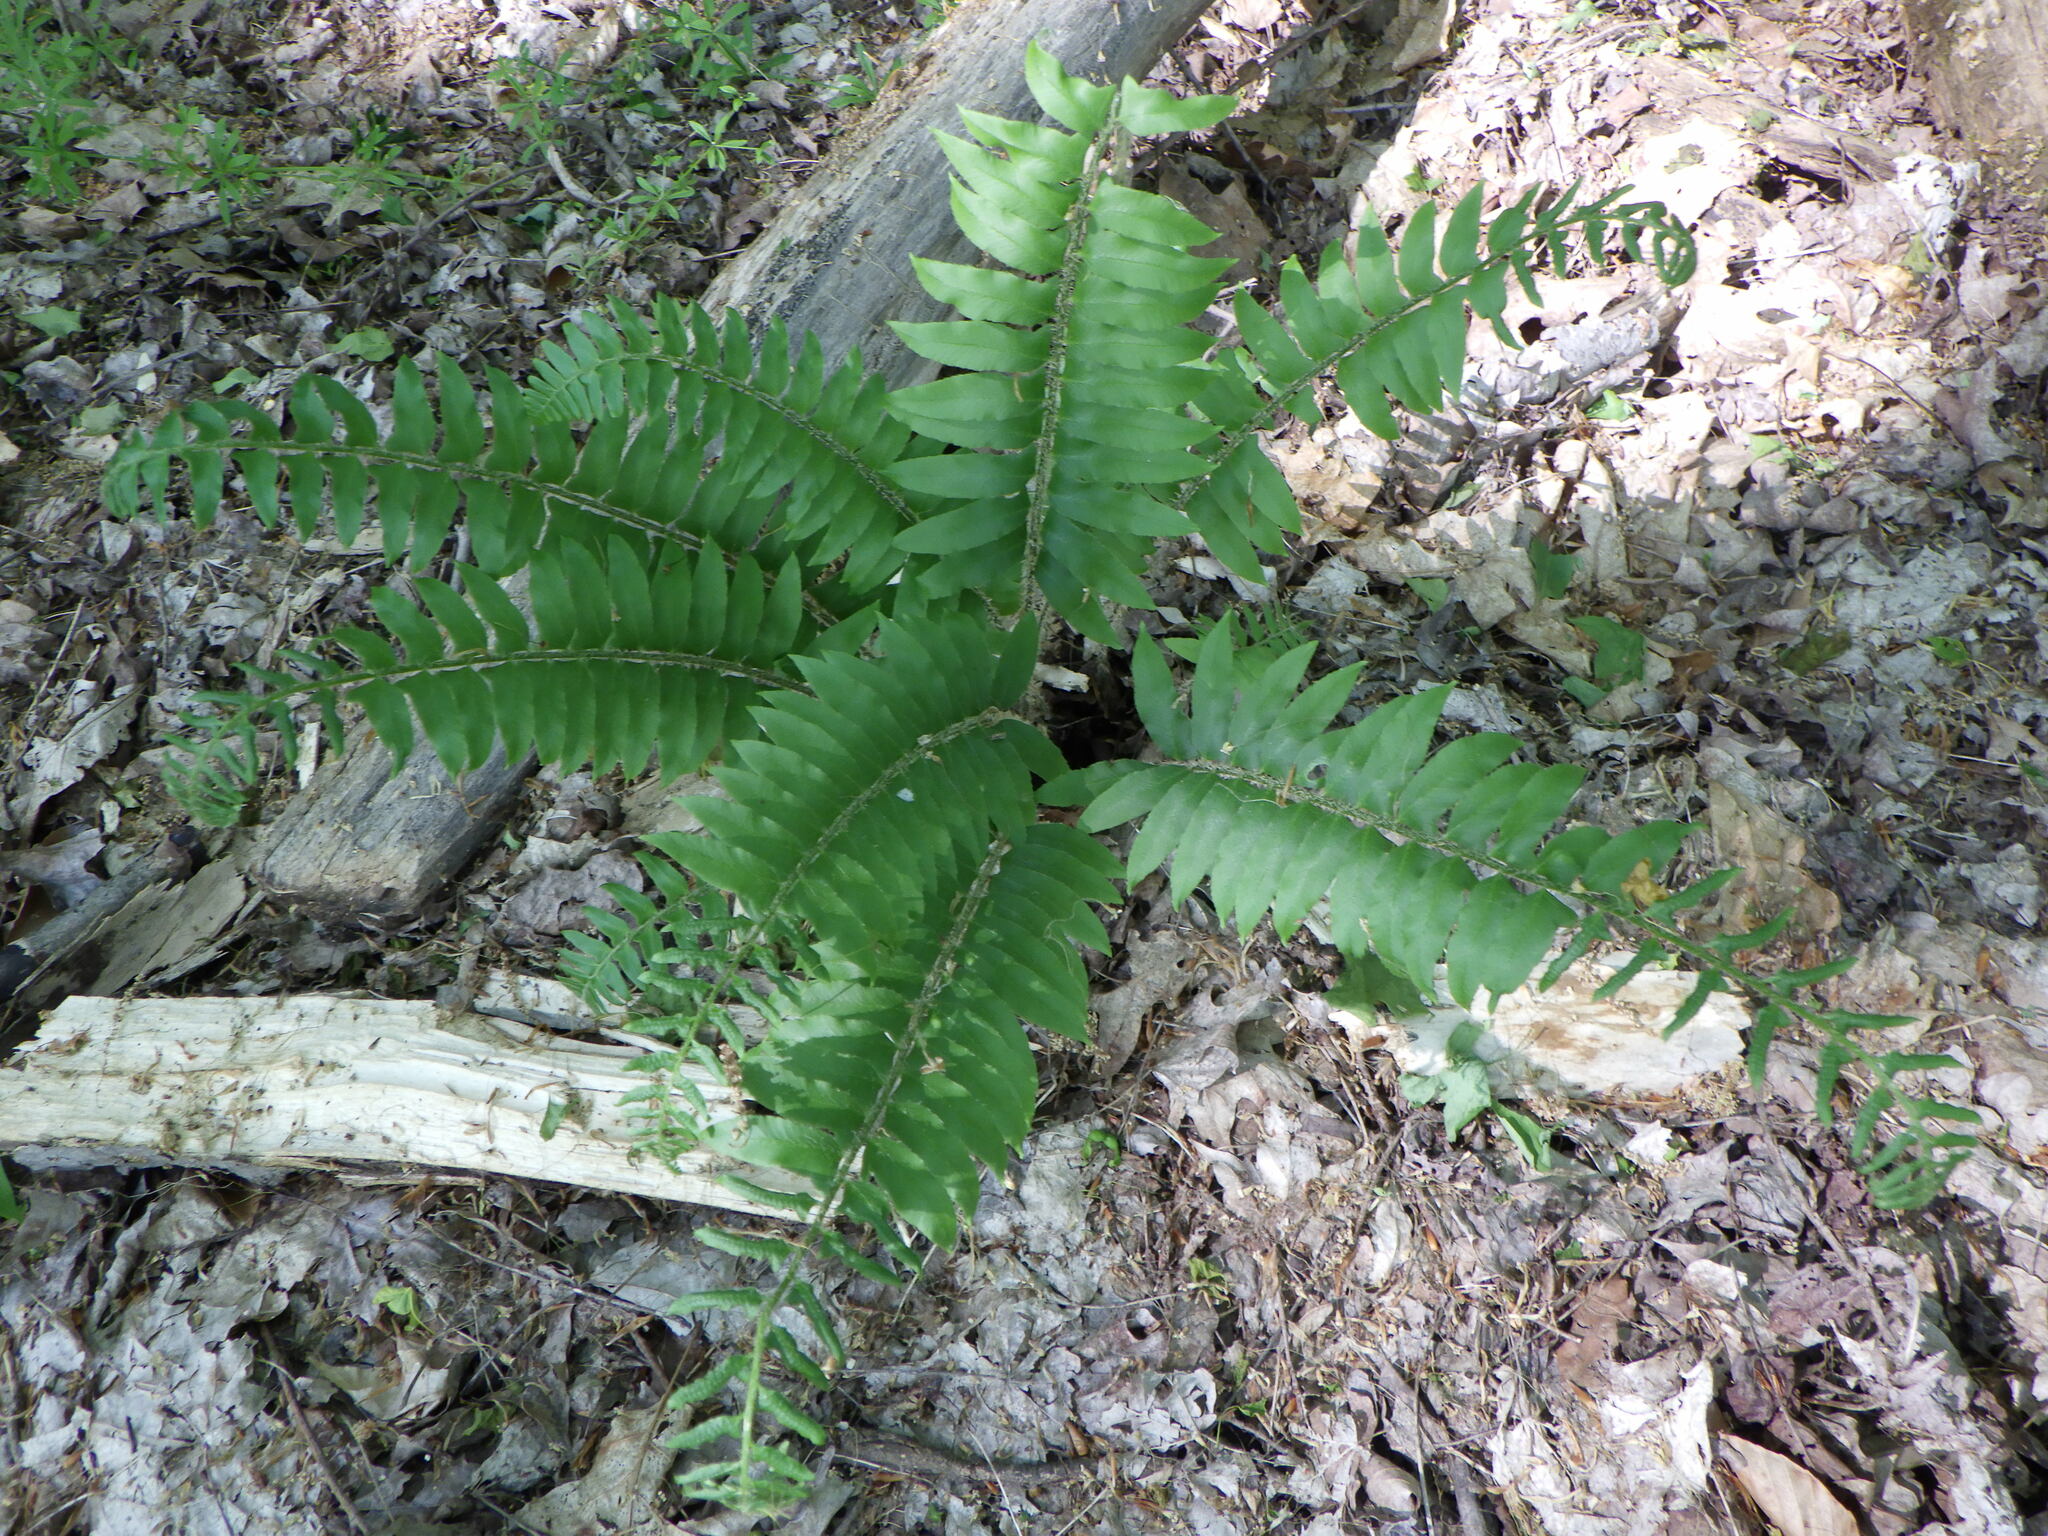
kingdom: Plantae
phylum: Tracheophyta
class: Polypodiopsida
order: Polypodiales
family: Dryopteridaceae
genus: Polystichum
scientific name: Polystichum acrostichoides
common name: Christmas fern
